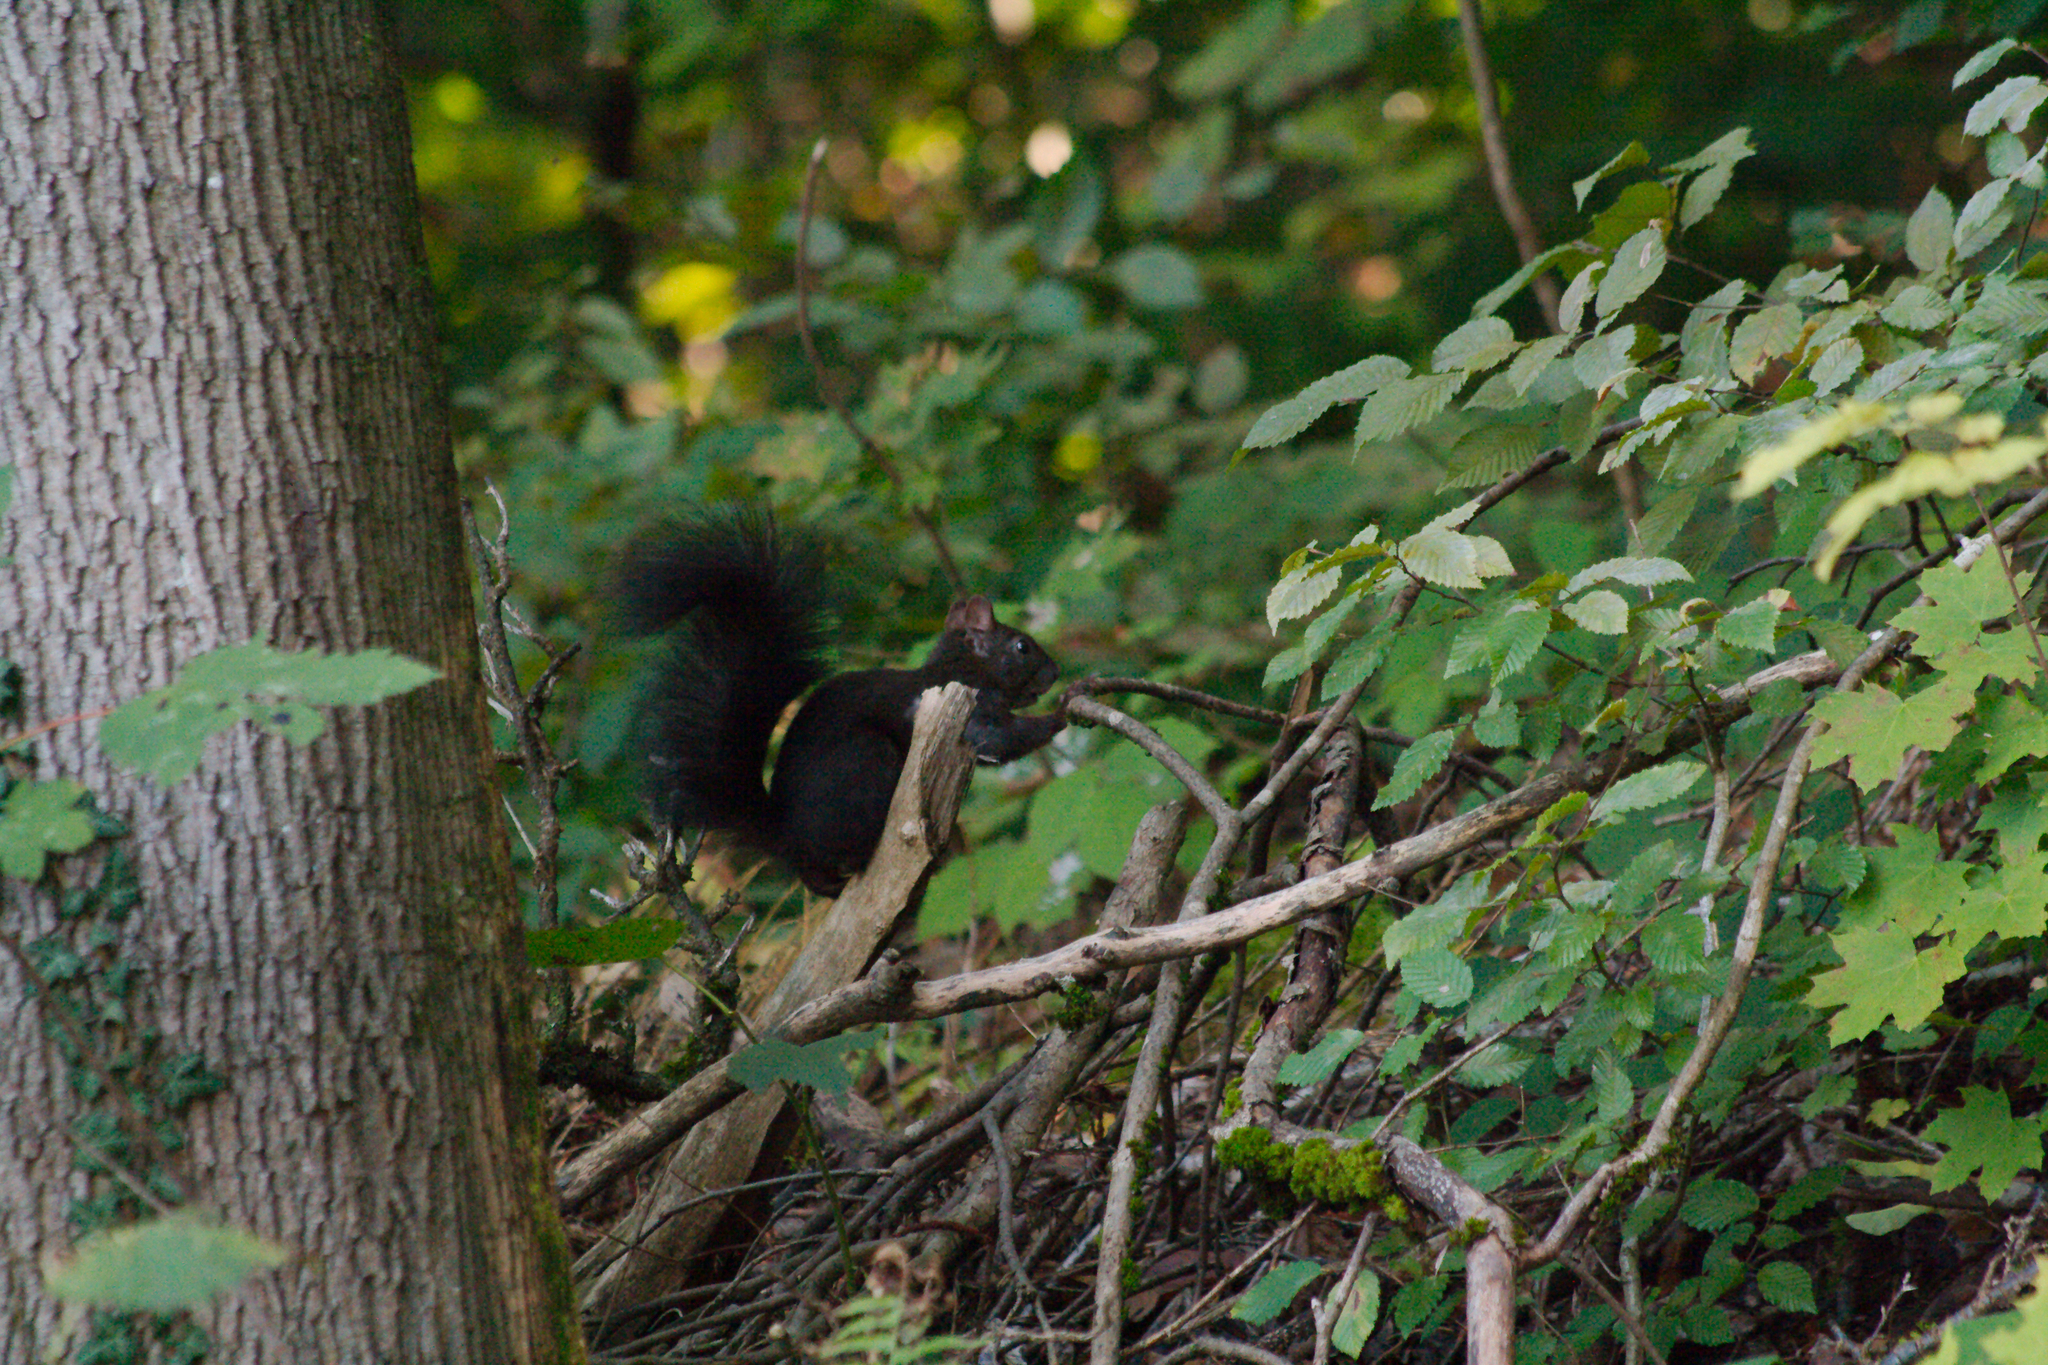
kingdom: Animalia
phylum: Chordata
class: Mammalia
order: Rodentia
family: Sciuridae
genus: Sciurus
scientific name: Sciurus vulgaris
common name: Eurasian red squirrel
